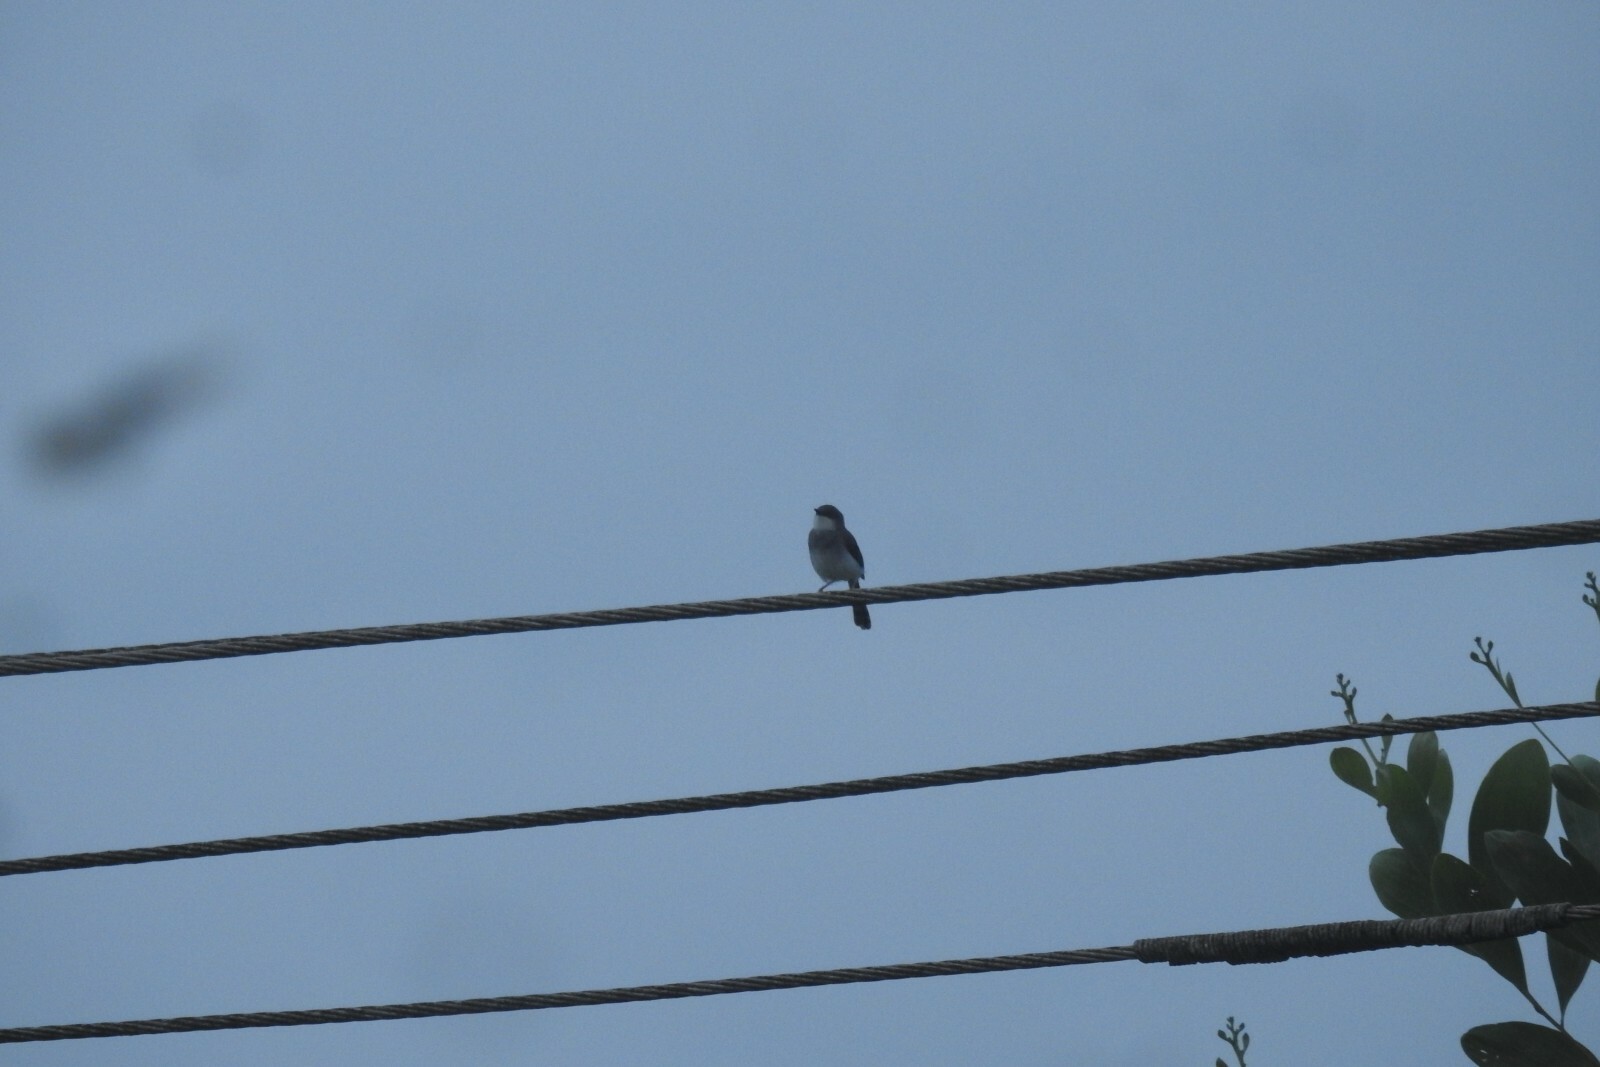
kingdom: Animalia
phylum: Chordata
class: Aves
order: Passeriformes
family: Cisticolidae
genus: Prinia
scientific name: Prinia hodgsonii
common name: Grey-breasted prinia
